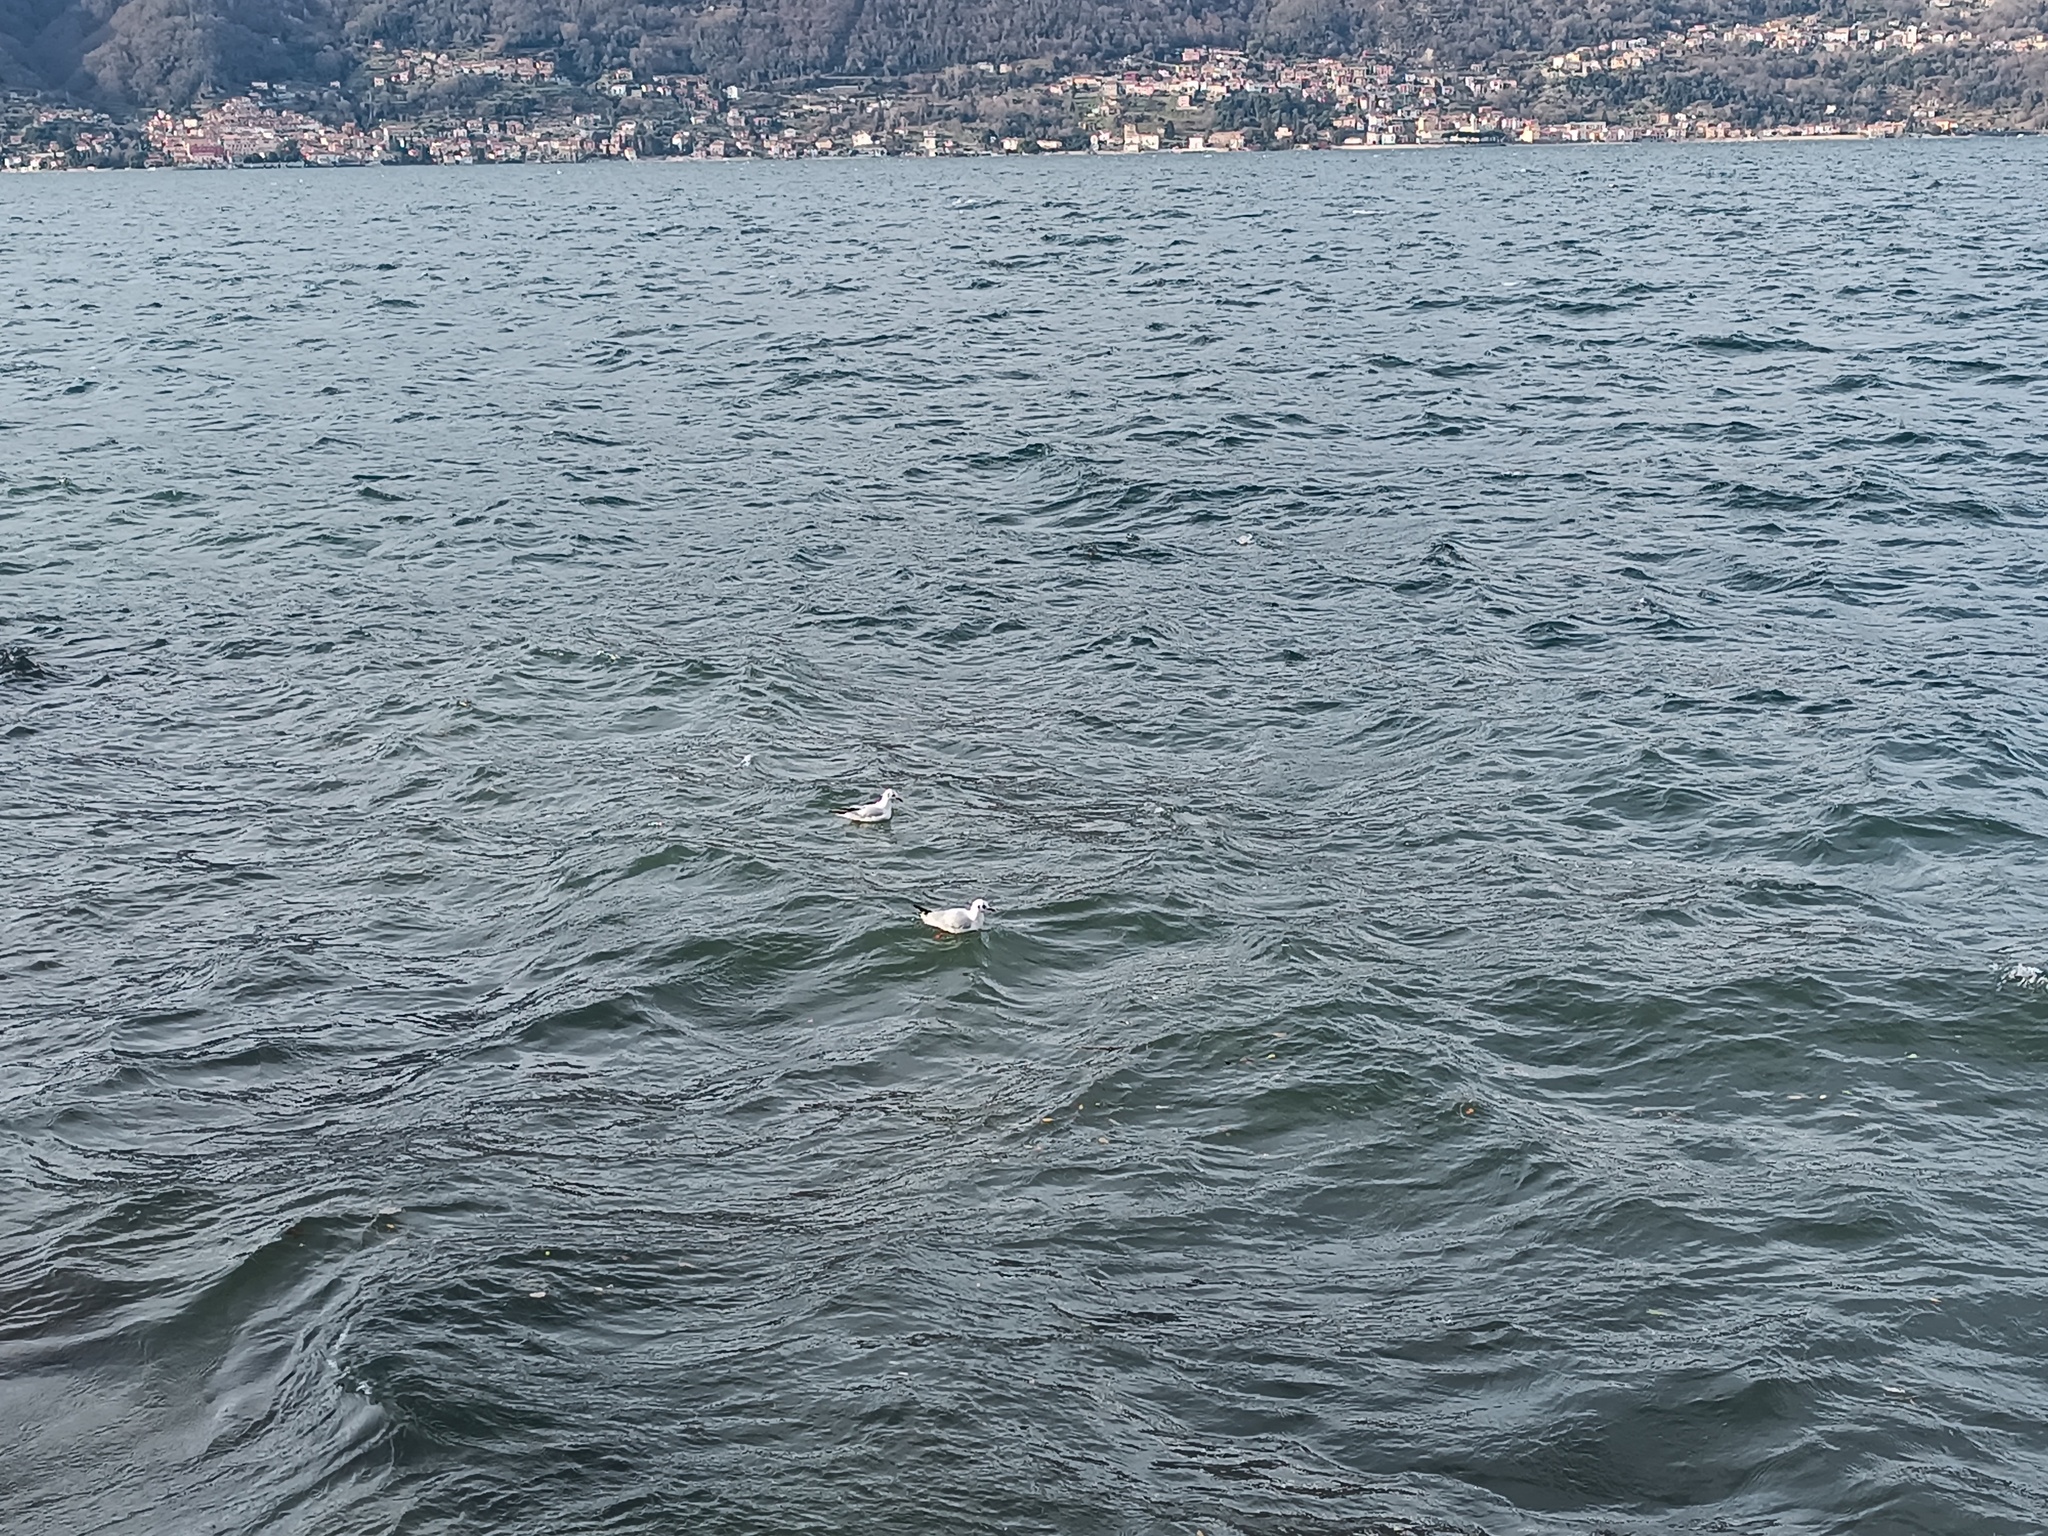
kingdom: Animalia
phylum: Chordata
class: Aves
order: Charadriiformes
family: Laridae
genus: Chroicocephalus
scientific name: Chroicocephalus ridibundus
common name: Black-headed gull
